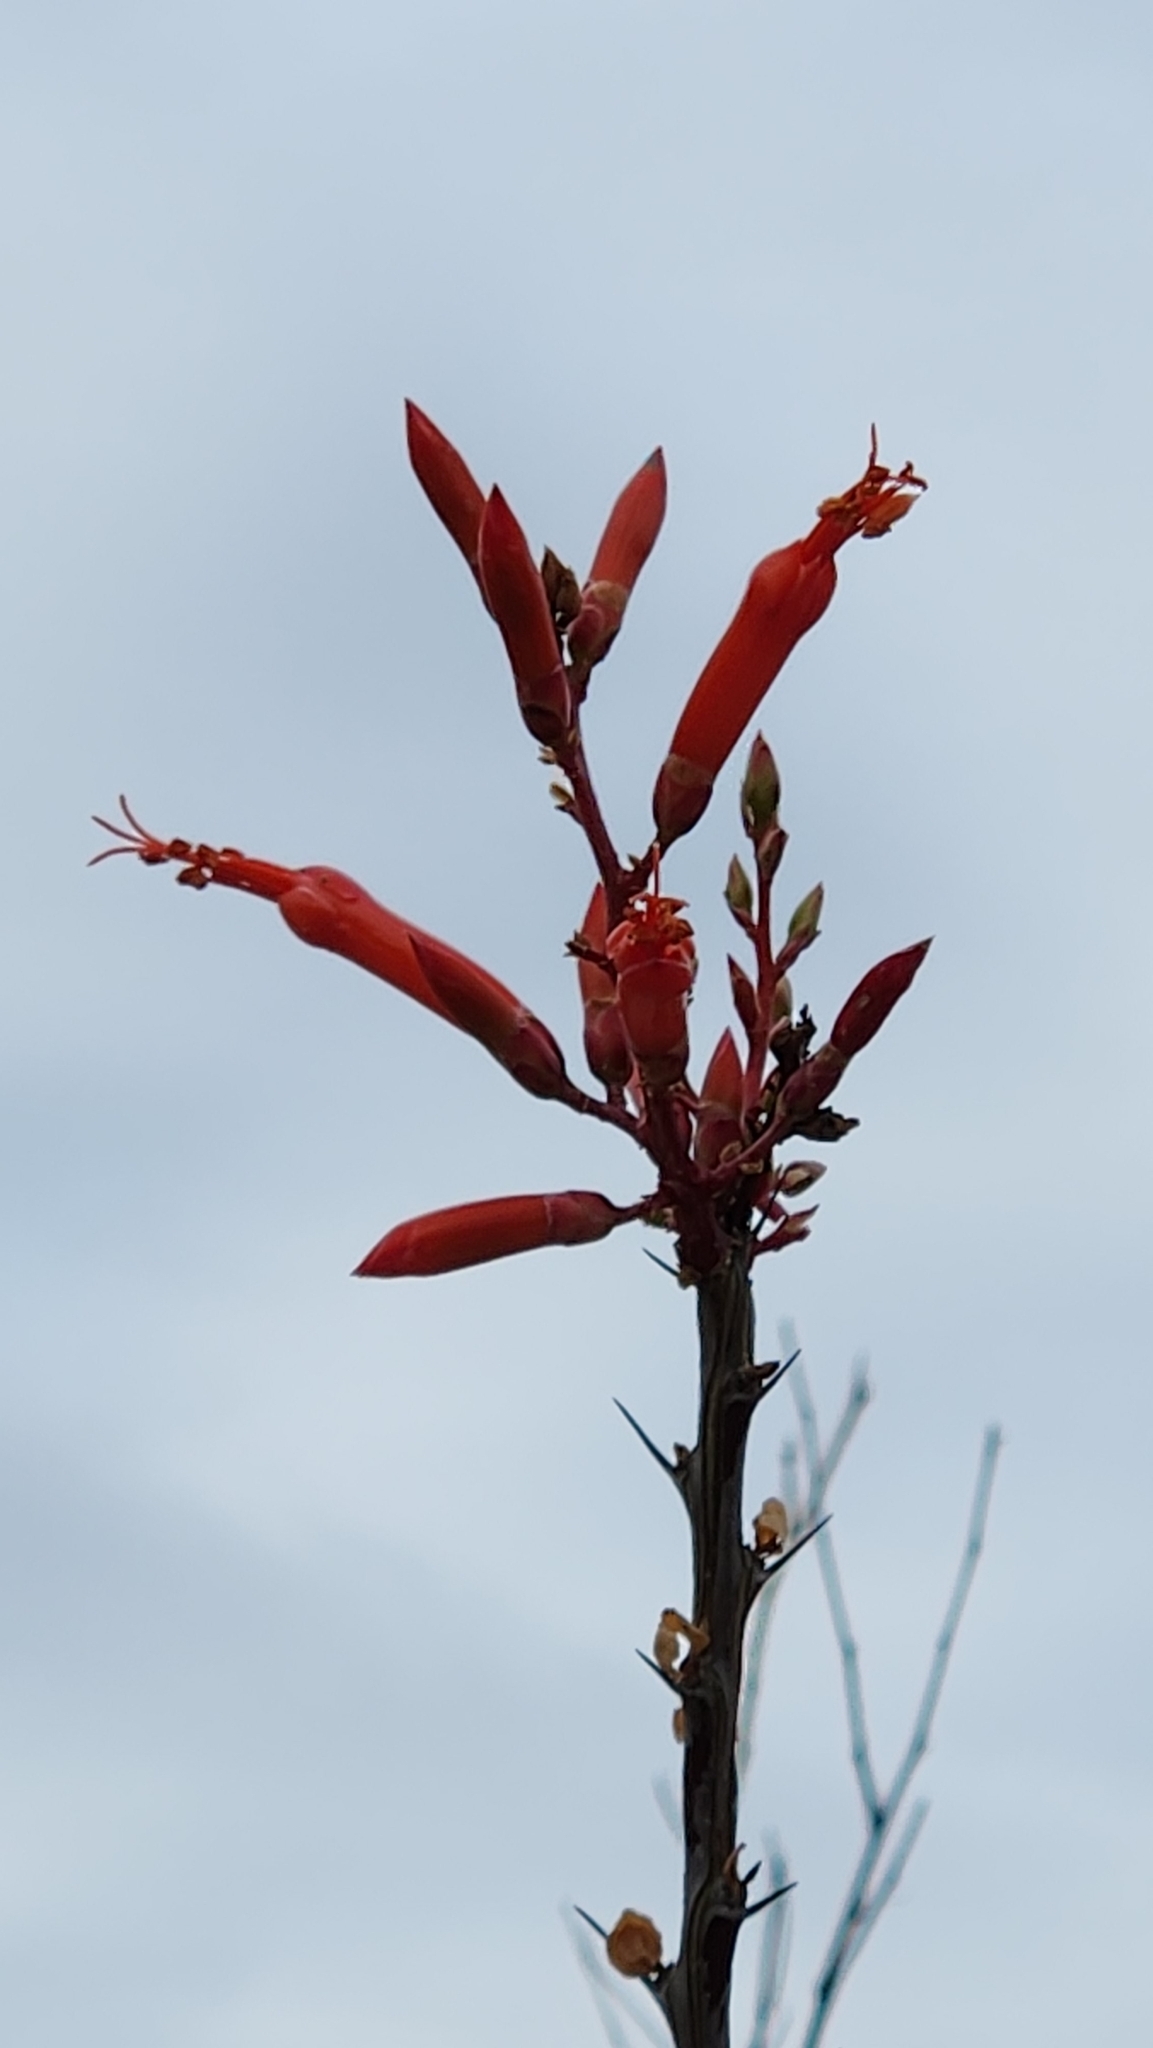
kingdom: Plantae
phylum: Tracheophyta
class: Magnoliopsida
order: Ericales
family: Fouquieriaceae
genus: Fouquieria
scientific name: Fouquieria diguetii
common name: Adam's tree
